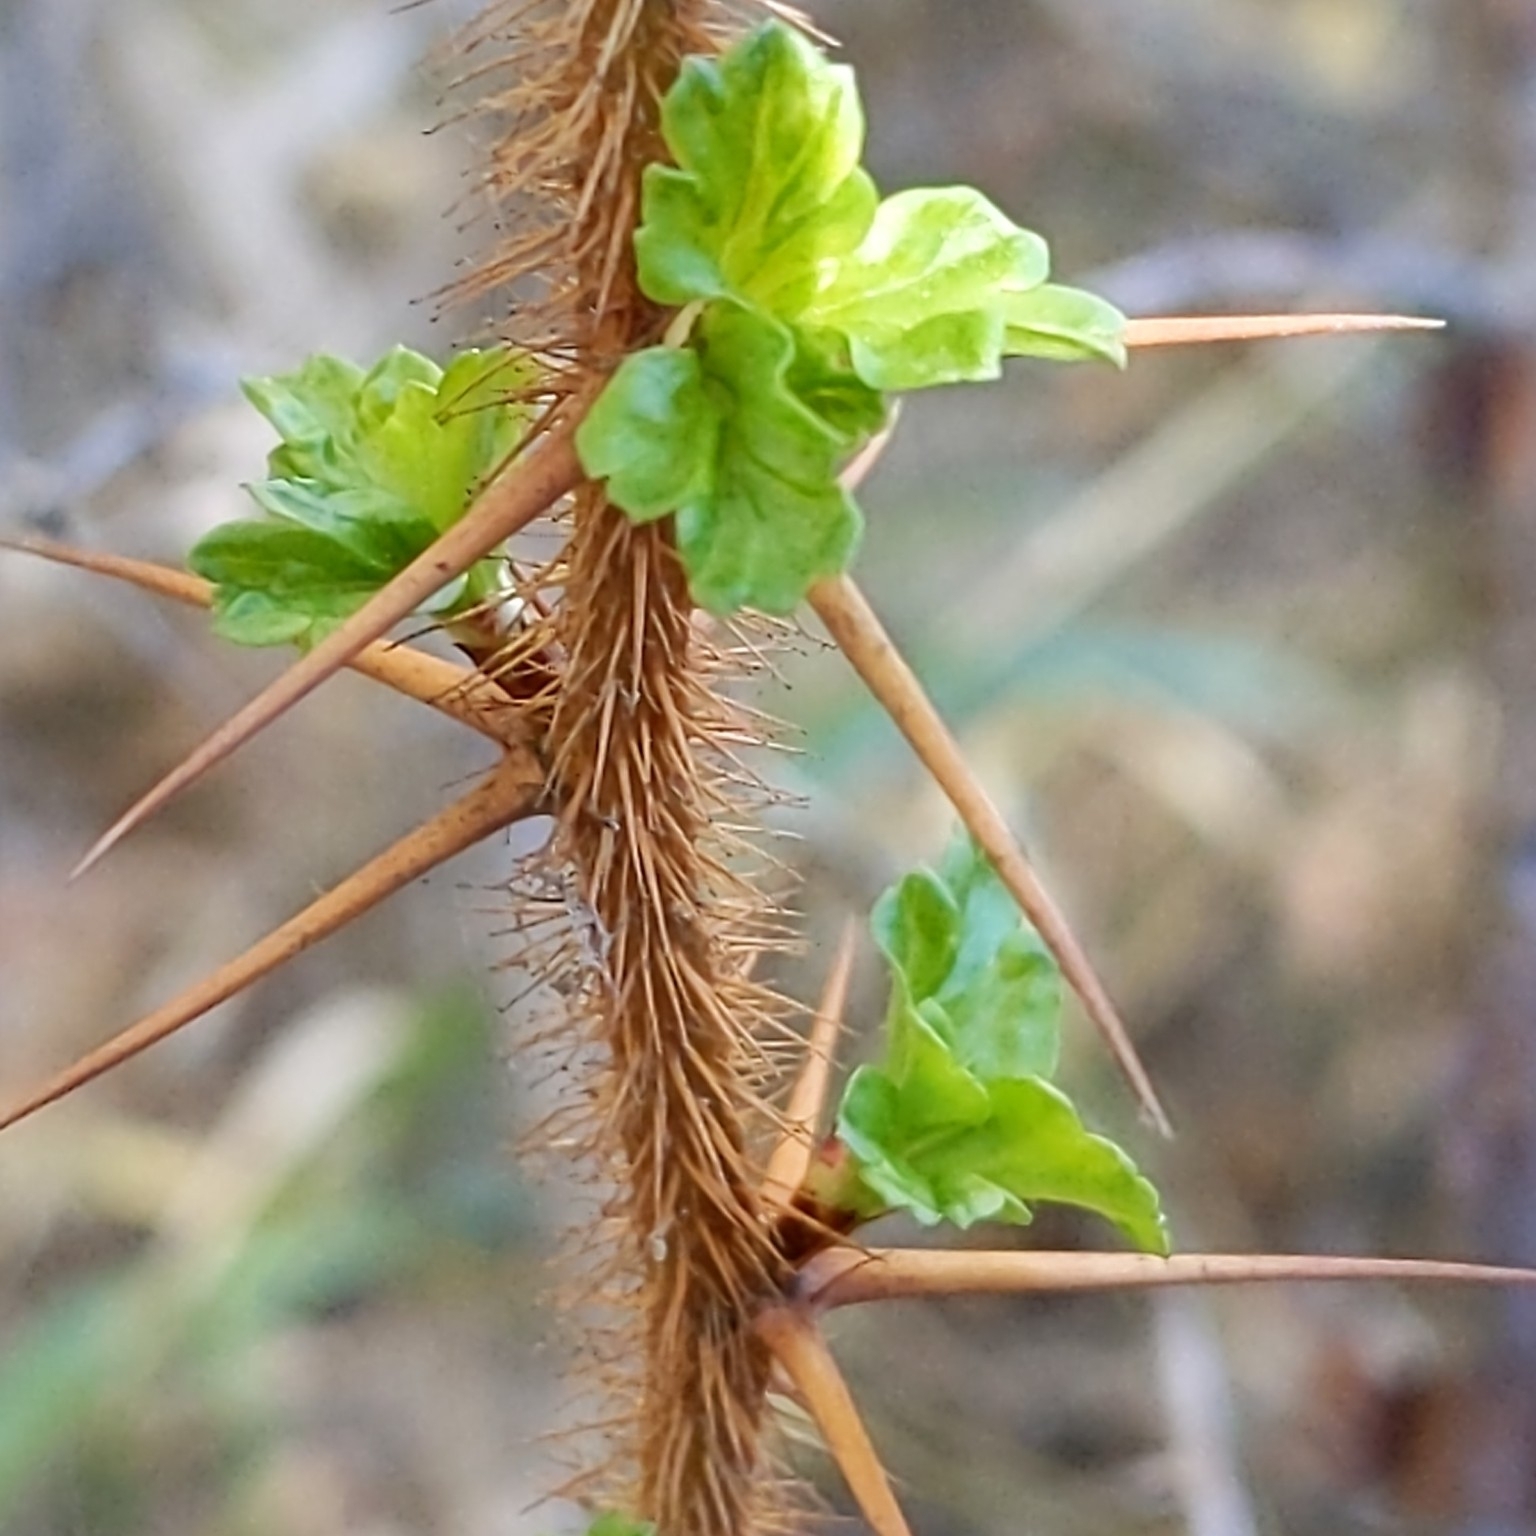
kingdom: Plantae
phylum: Tracheophyta
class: Magnoliopsida
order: Saxifragales
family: Grossulariaceae
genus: Ribes
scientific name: Ribes speciosum
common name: Fuchsia-flower gooseberry
